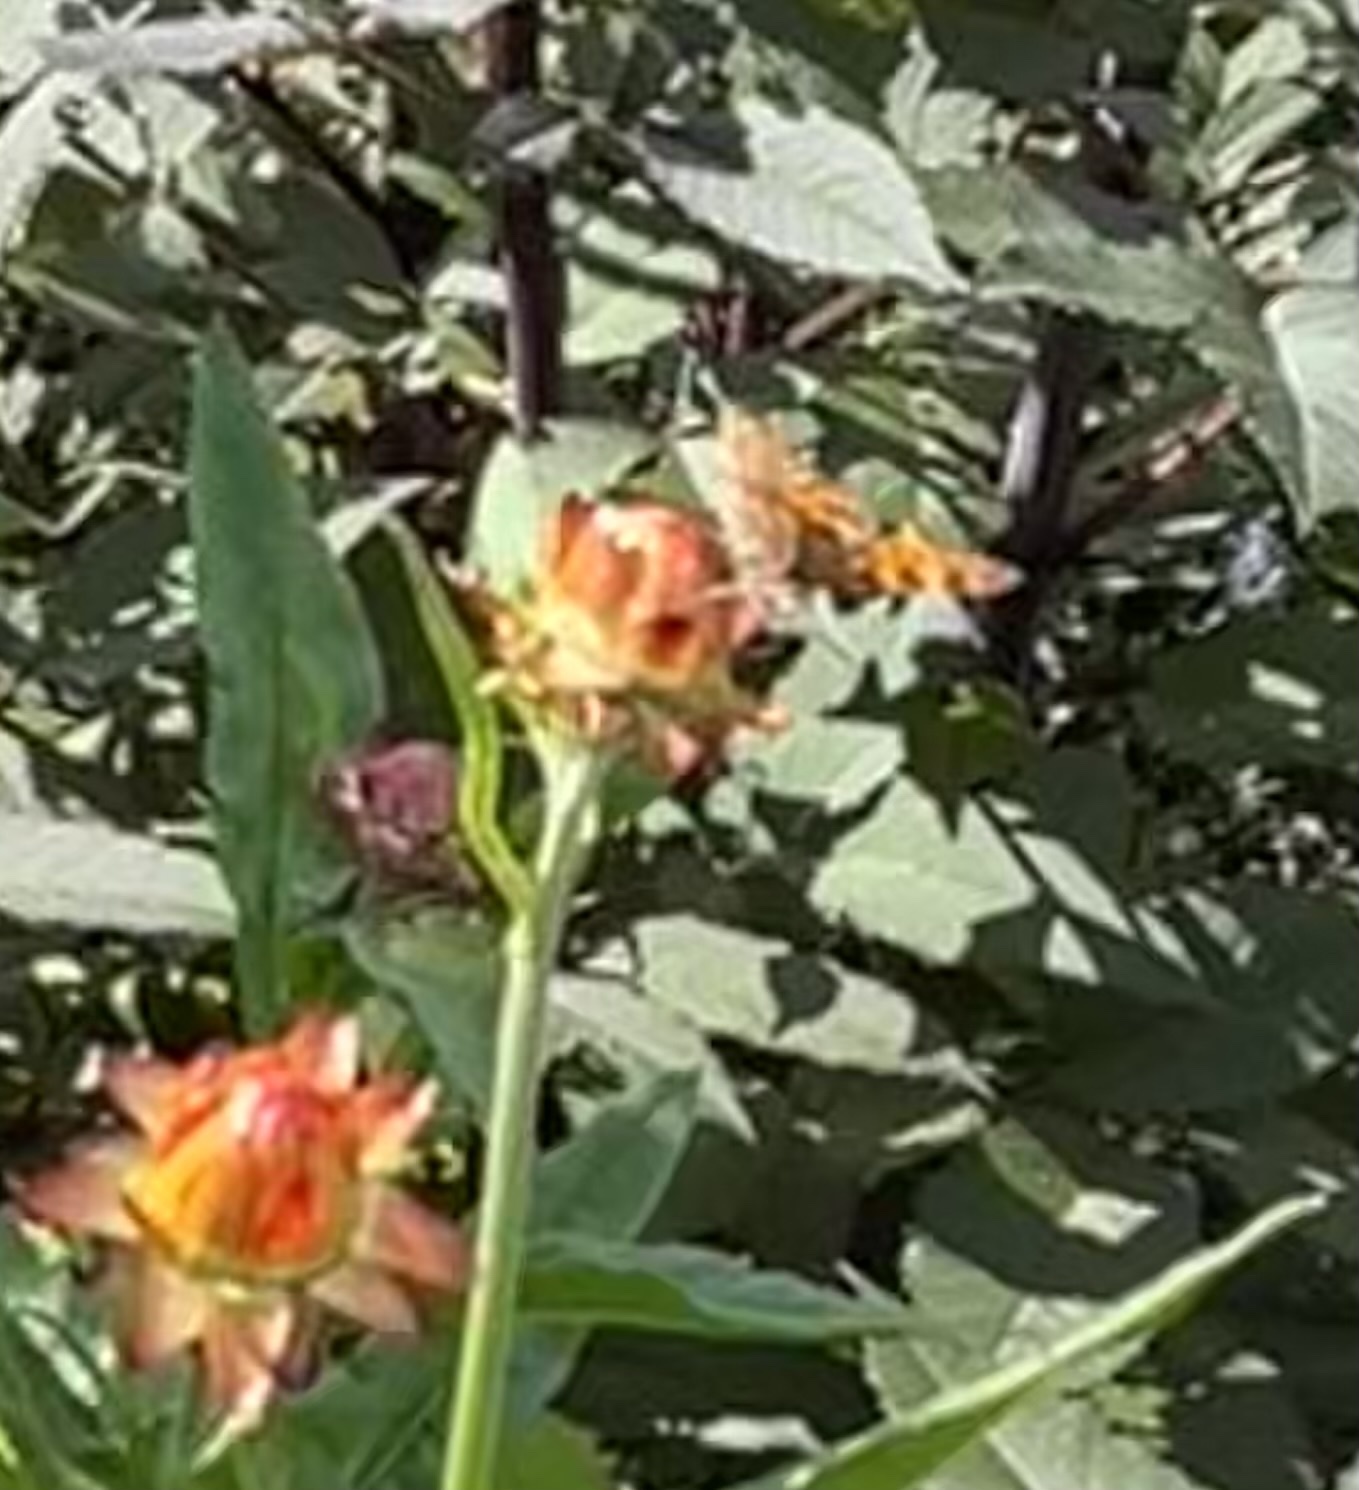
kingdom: Animalia
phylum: Arthropoda
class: Insecta
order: Lepidoptera
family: Nymphalidae
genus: Polygonia
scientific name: Polygonia c-album
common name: Comma
